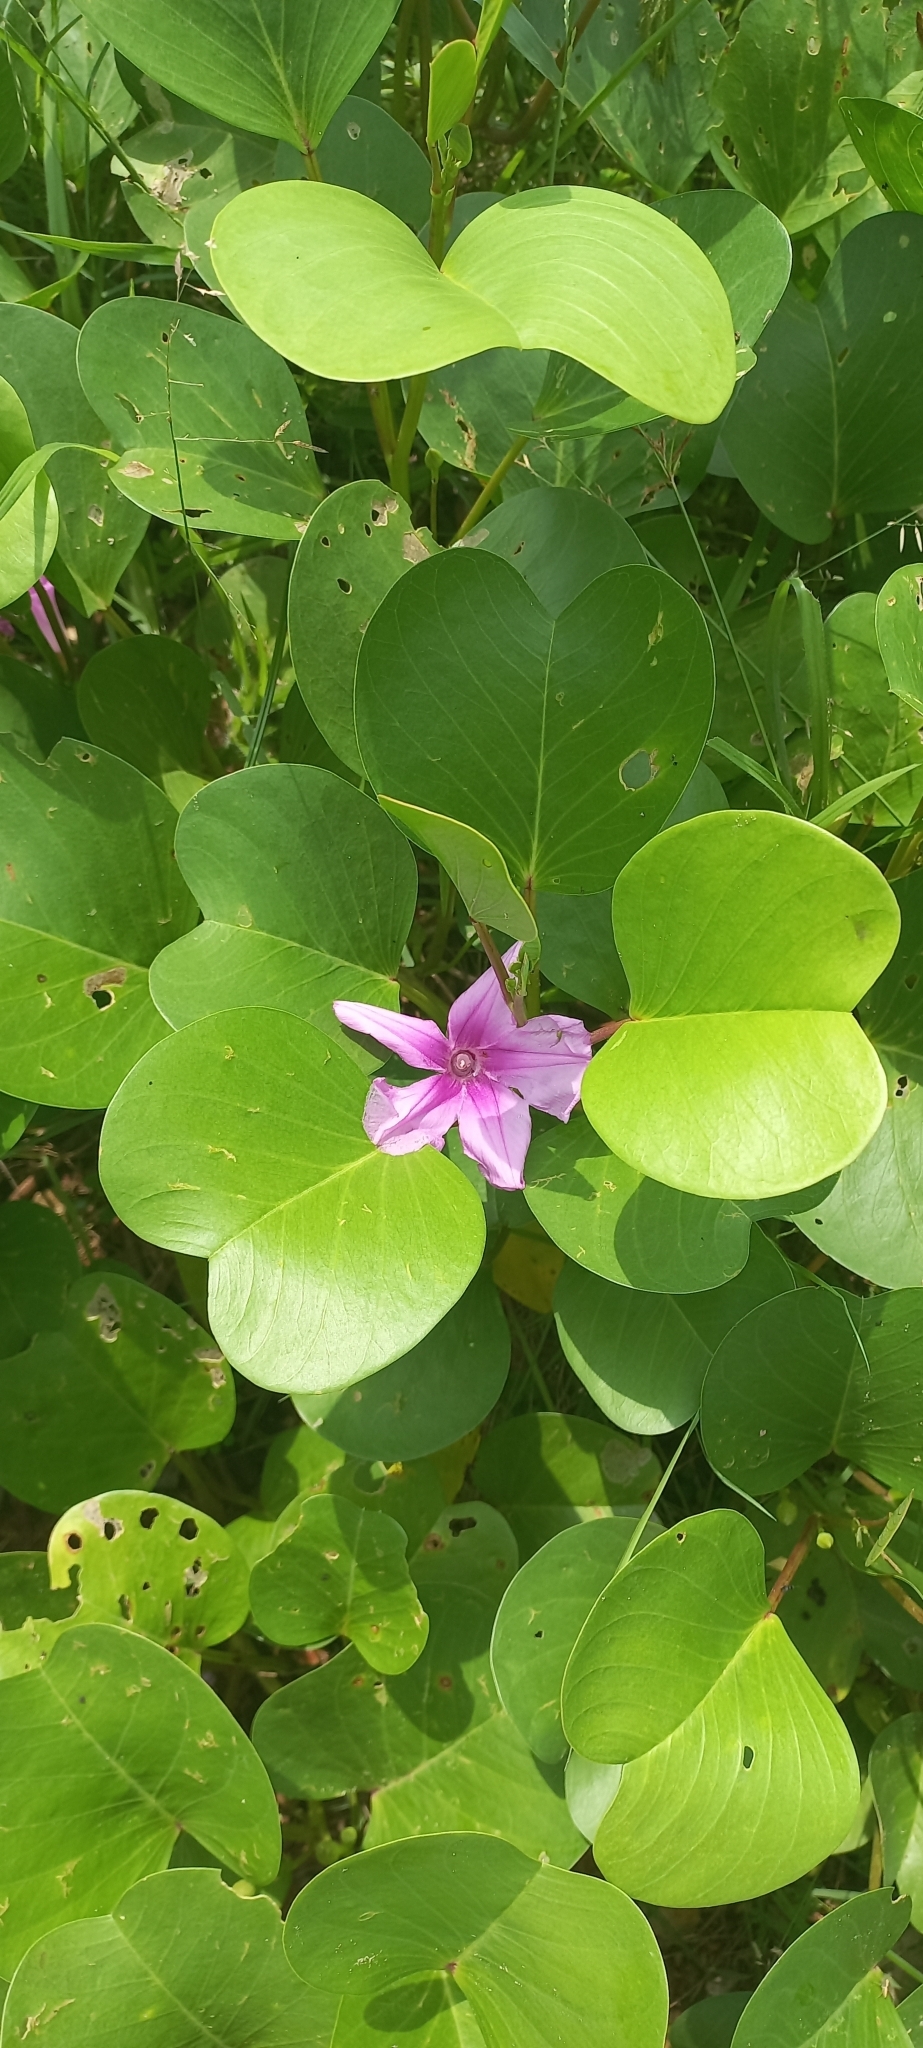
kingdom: Plantae
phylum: Tracheophyta
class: Magnoliopsida
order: Solanales
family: Convolvulaceae
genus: Ipomoea
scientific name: Ipomoea pes-caprae
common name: Beach morning glory
